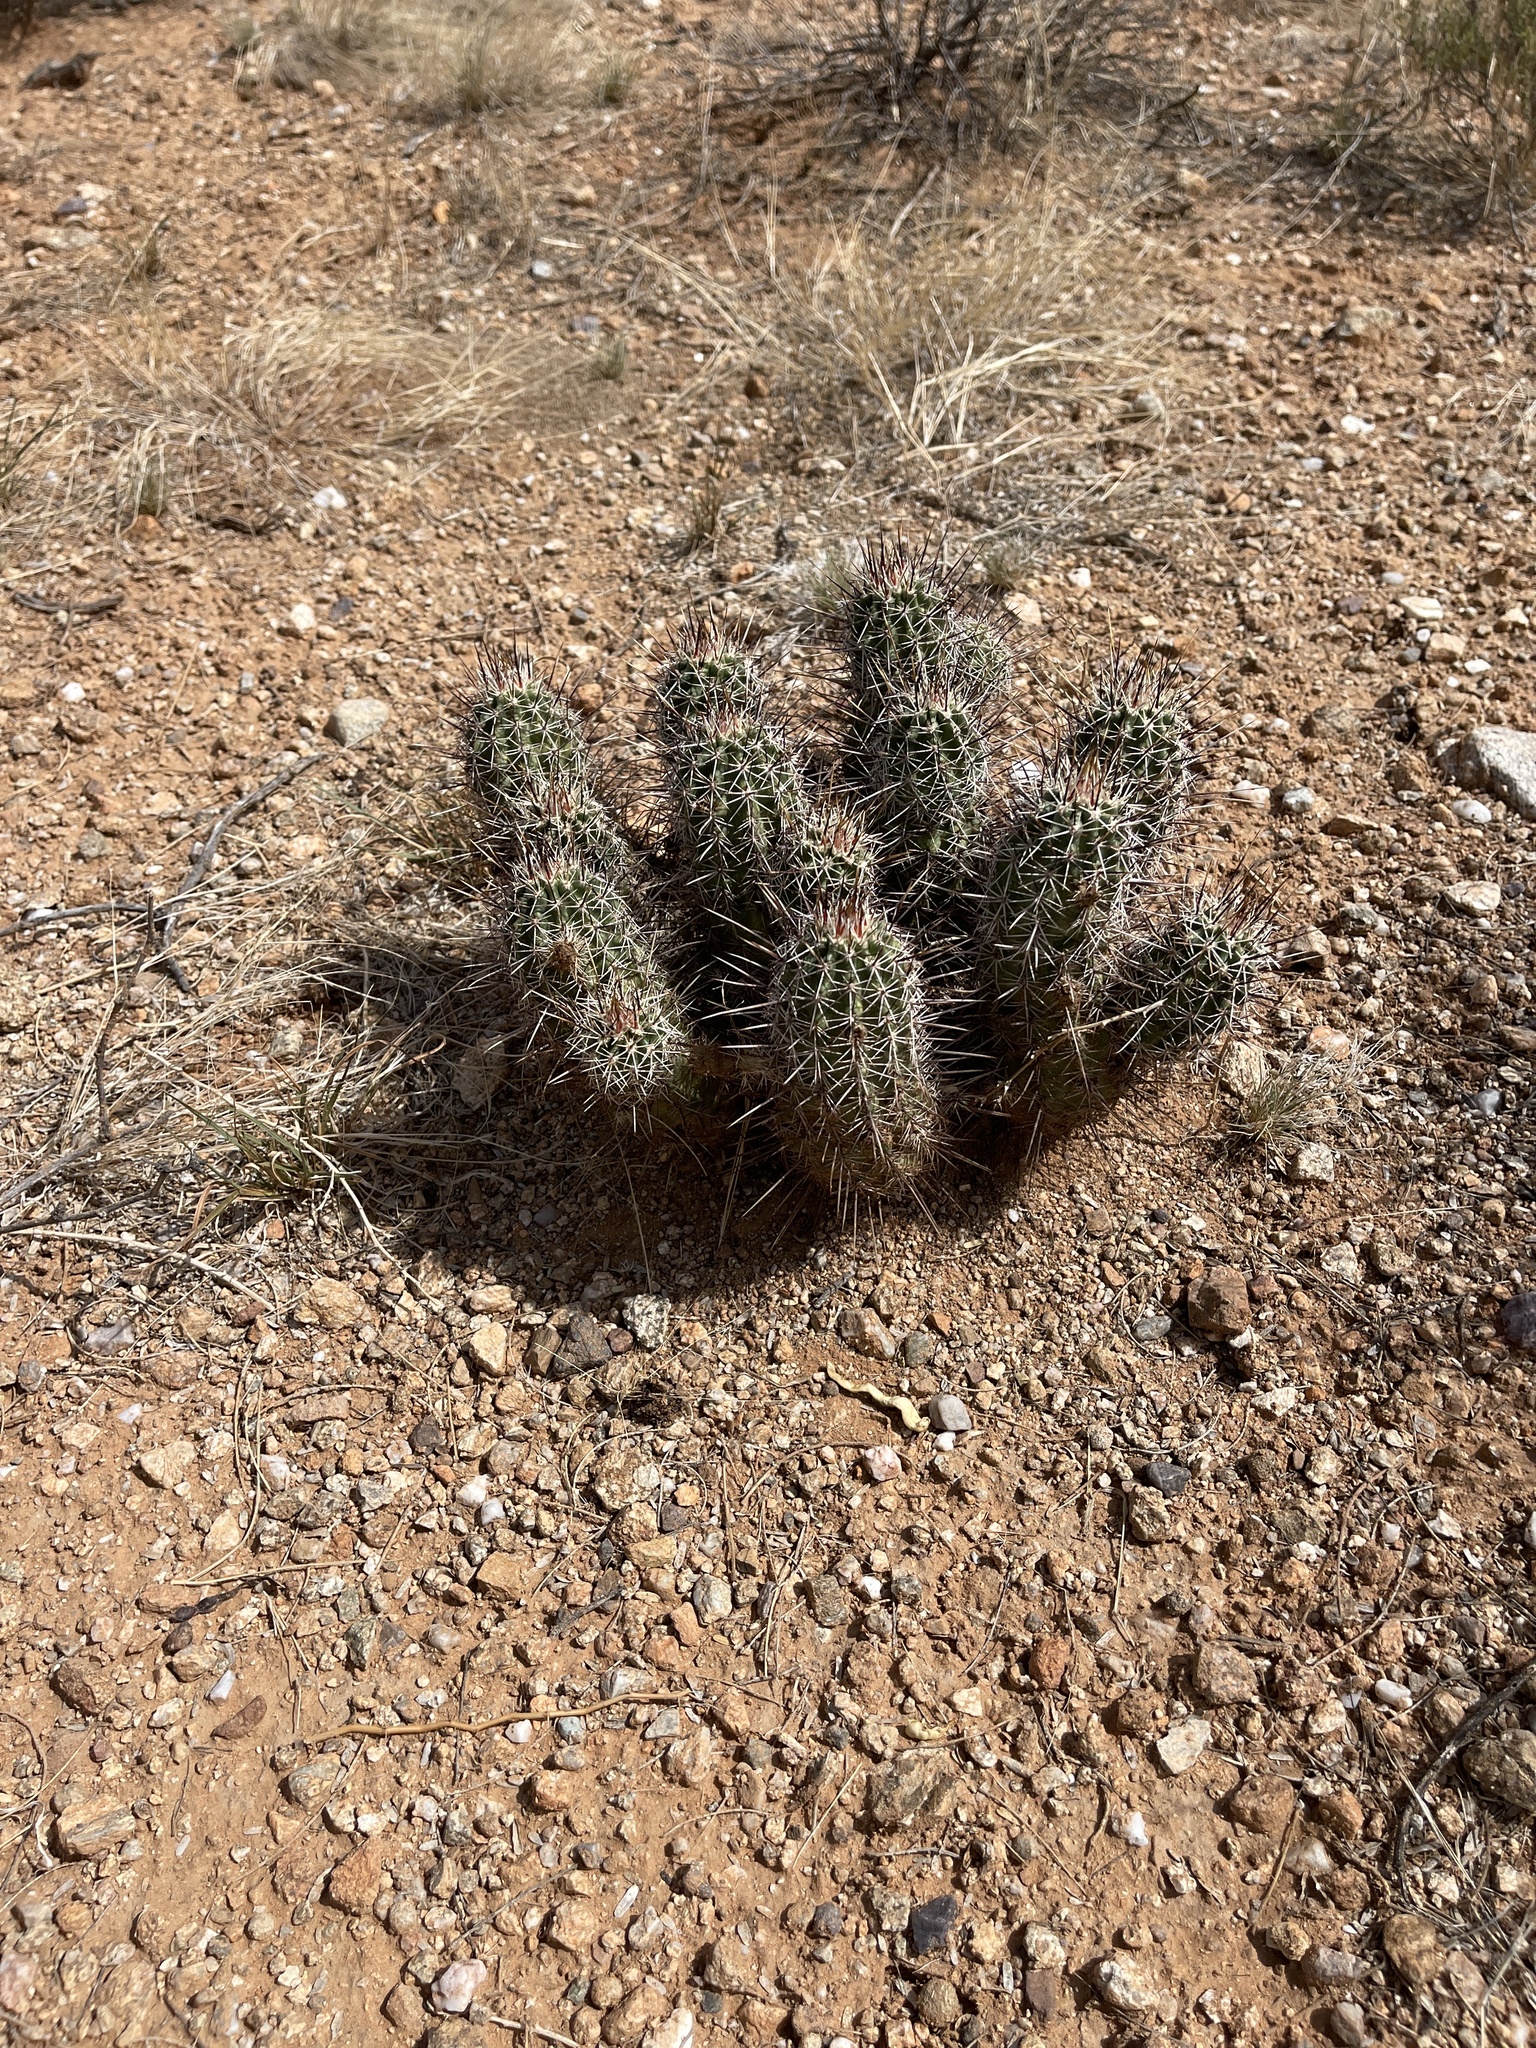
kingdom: Plantae
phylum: Tracheophyta
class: Magnoliopsida
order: Caryophyllales
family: Cactaceae
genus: Echinocereus
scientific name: Echinocereus fasciculatus
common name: Bundle hedgehog
